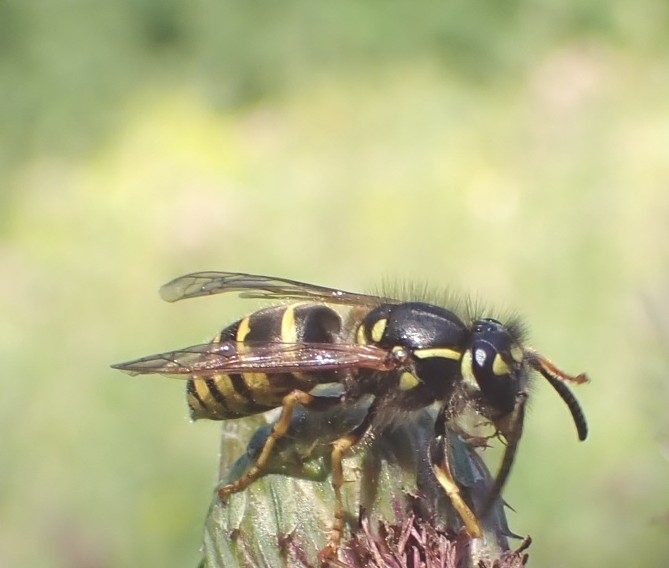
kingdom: Animalia
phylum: Arthropoda
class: Insecta
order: Hymenoptera
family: Vespidae
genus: Vespula
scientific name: Vespula vulgaris
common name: Common wasp
